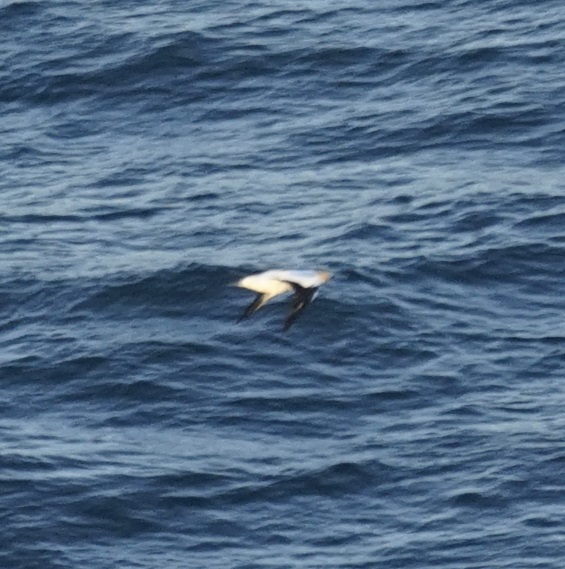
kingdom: Animalia
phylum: Chordata
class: Aves
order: Suliformes
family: Sulidae
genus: Morus
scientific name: Morus serrator
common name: Australasian gannet
